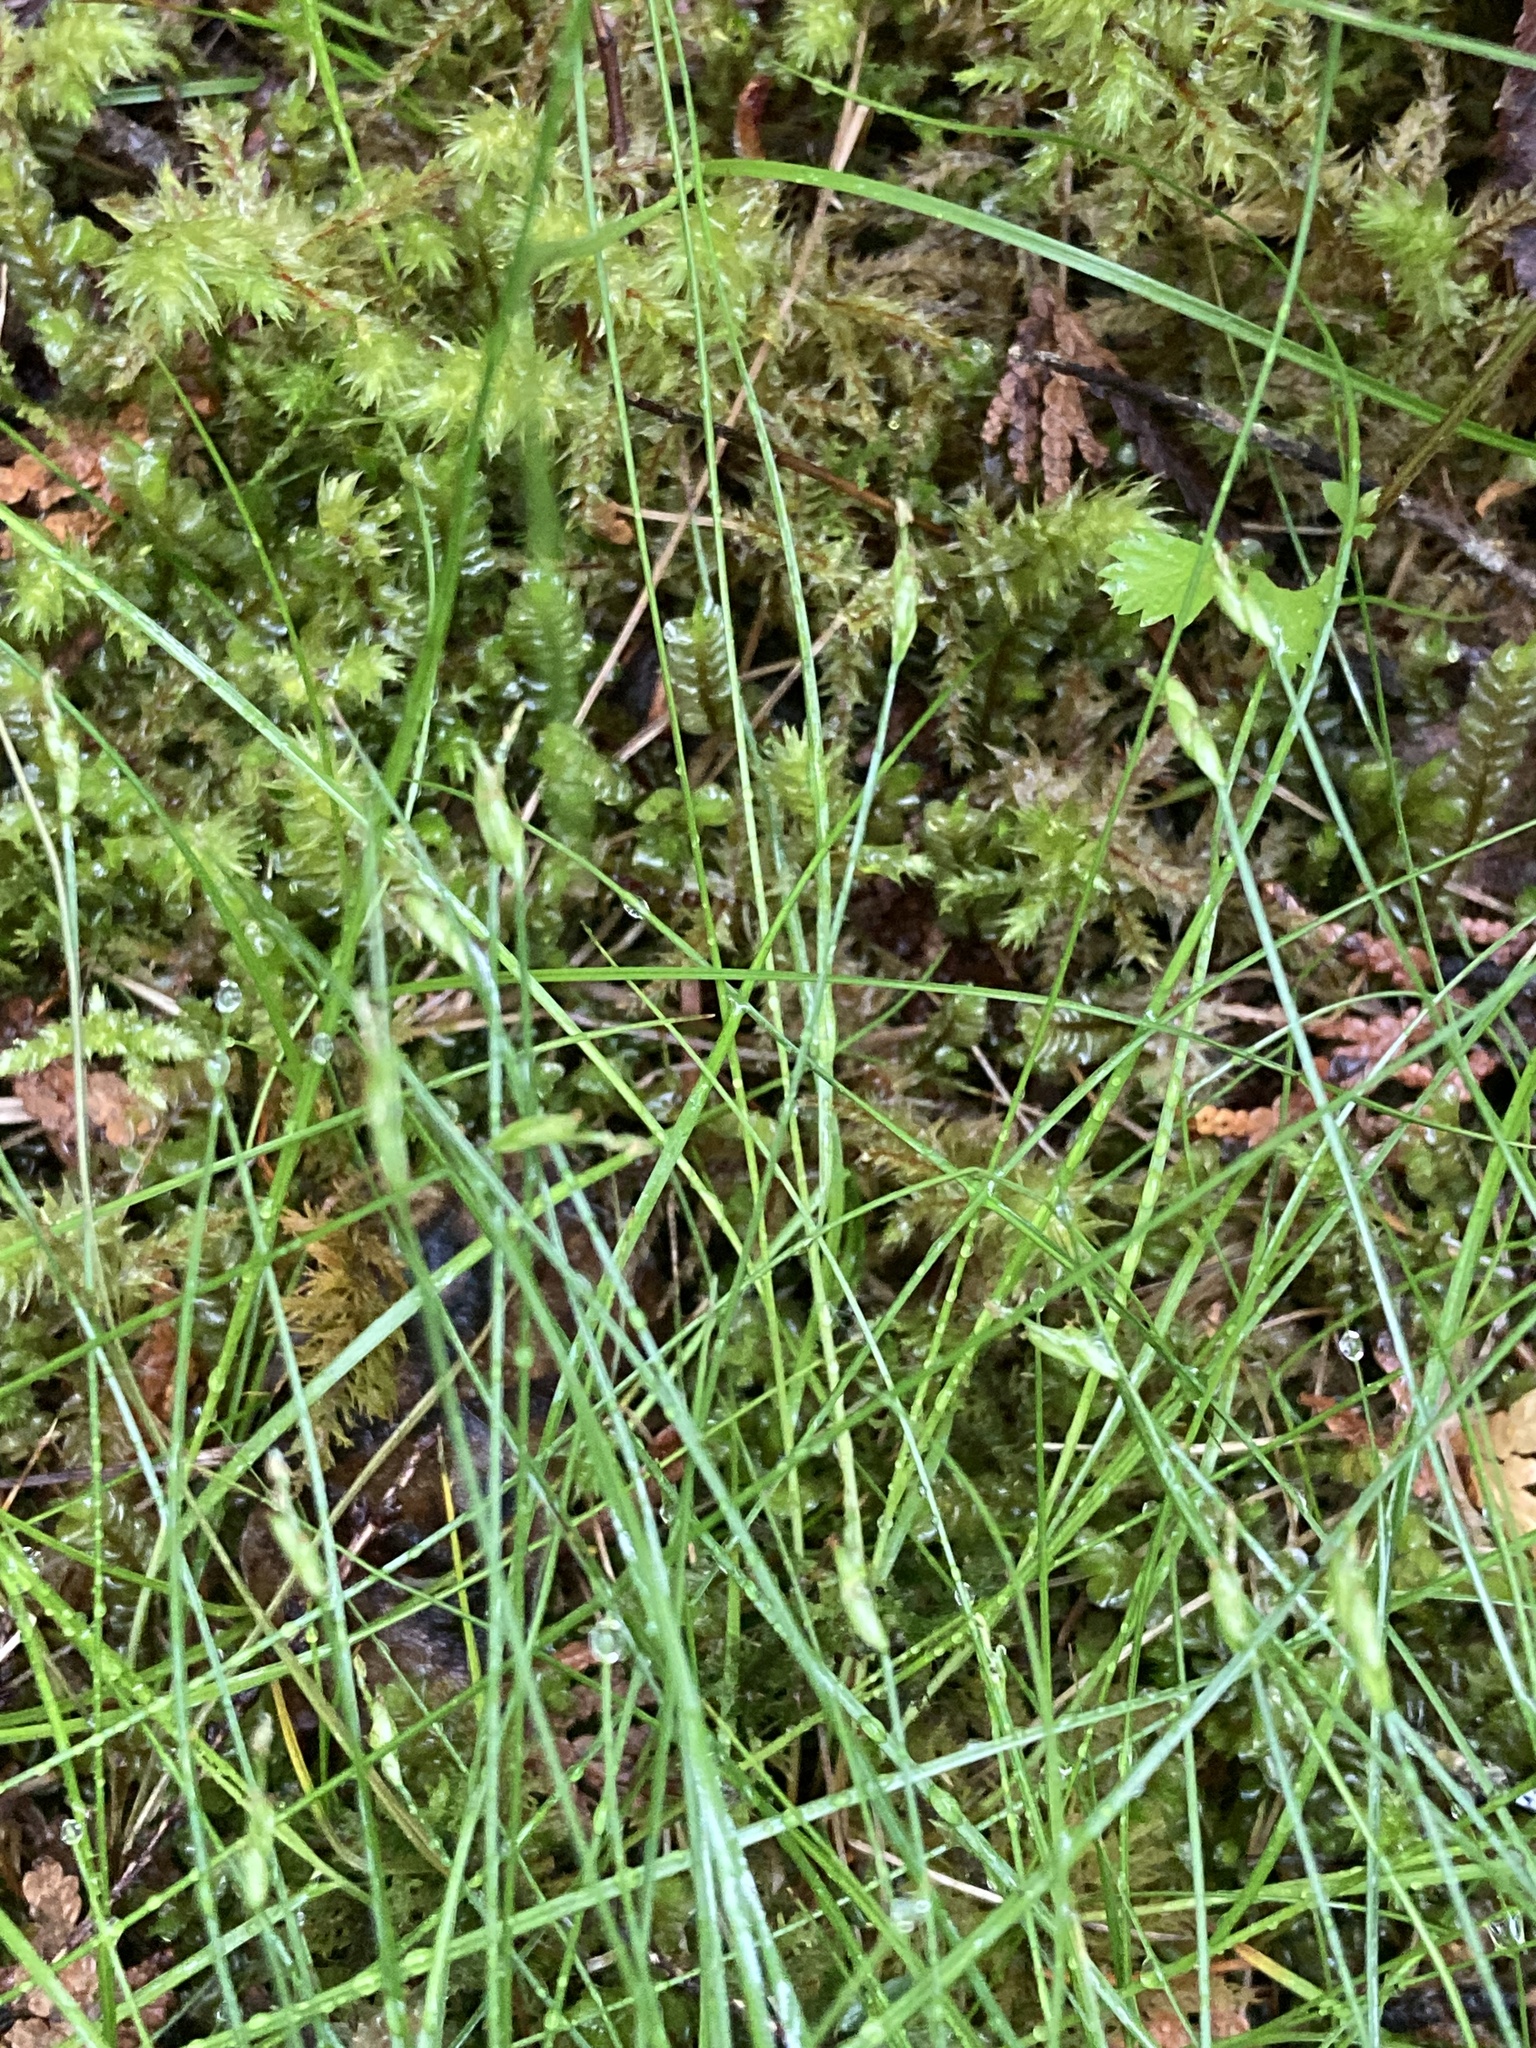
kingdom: Plantae
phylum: Tracheophyta
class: Liliopsida
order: Poales
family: Cyperaceae
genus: Carex
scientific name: Carex leptalea
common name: Bristly-stalked sedge
